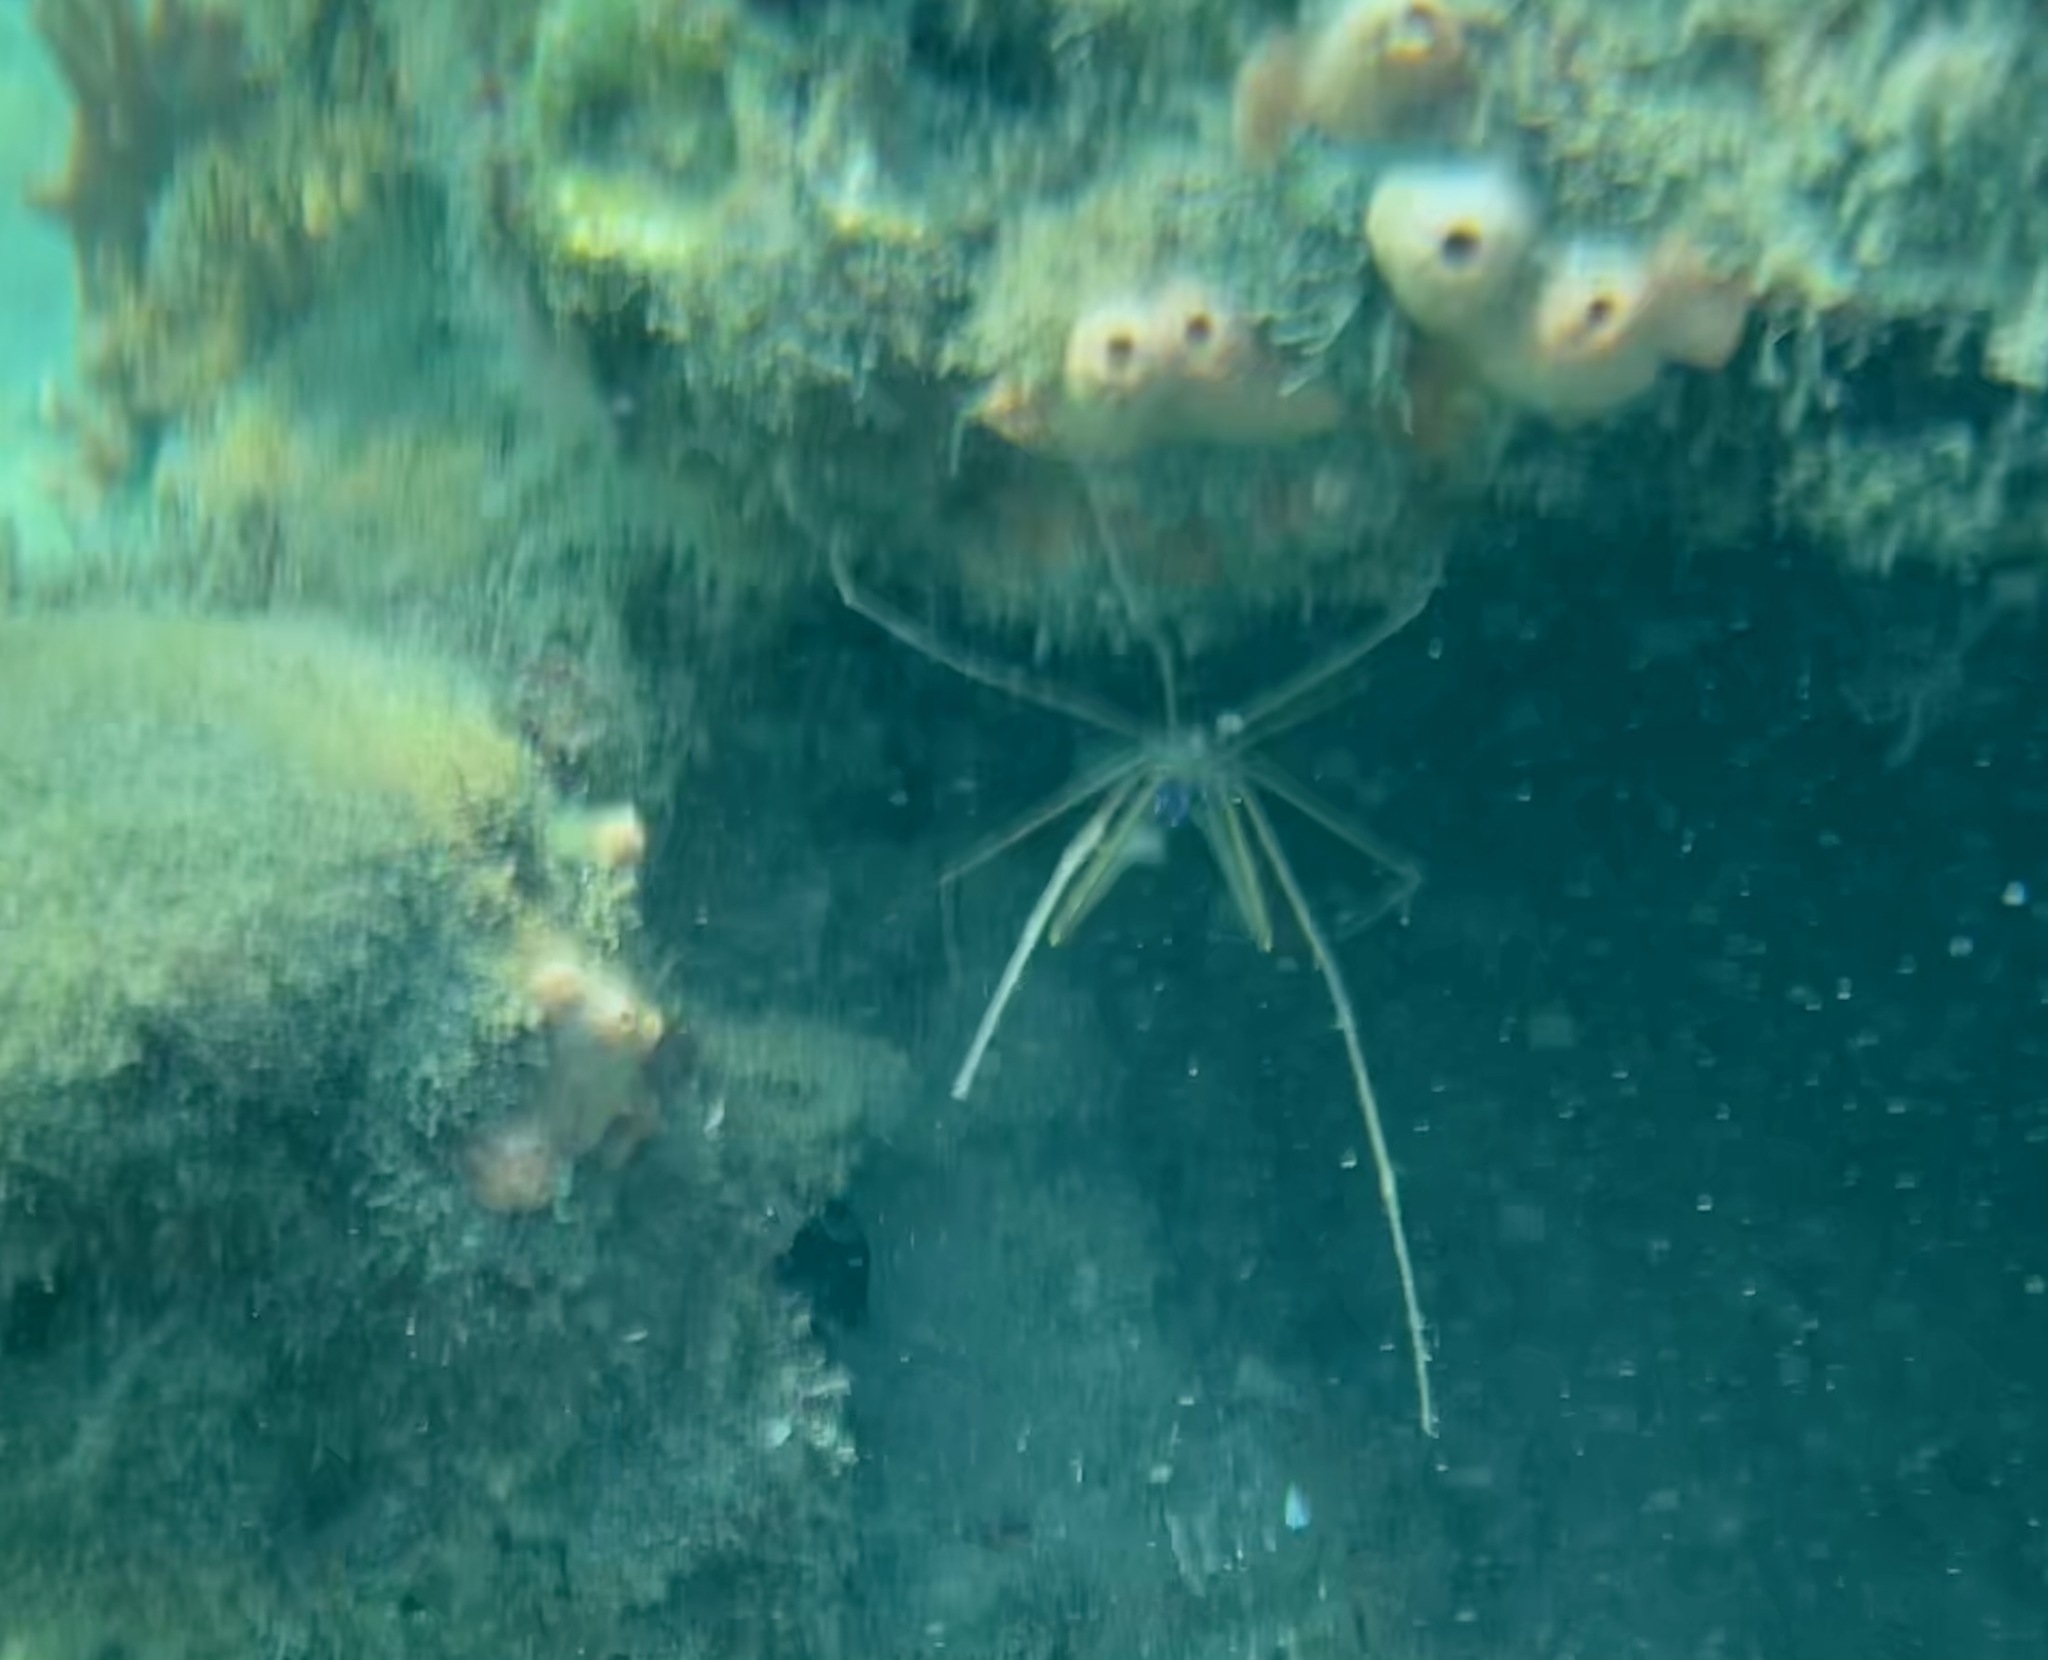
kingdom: Animalia
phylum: Arthropoda
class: Malacostraca
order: Decapoda
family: Inachoididae
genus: Stenorhynchus
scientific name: Stenorhynchus seticornis
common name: Arrow crab
